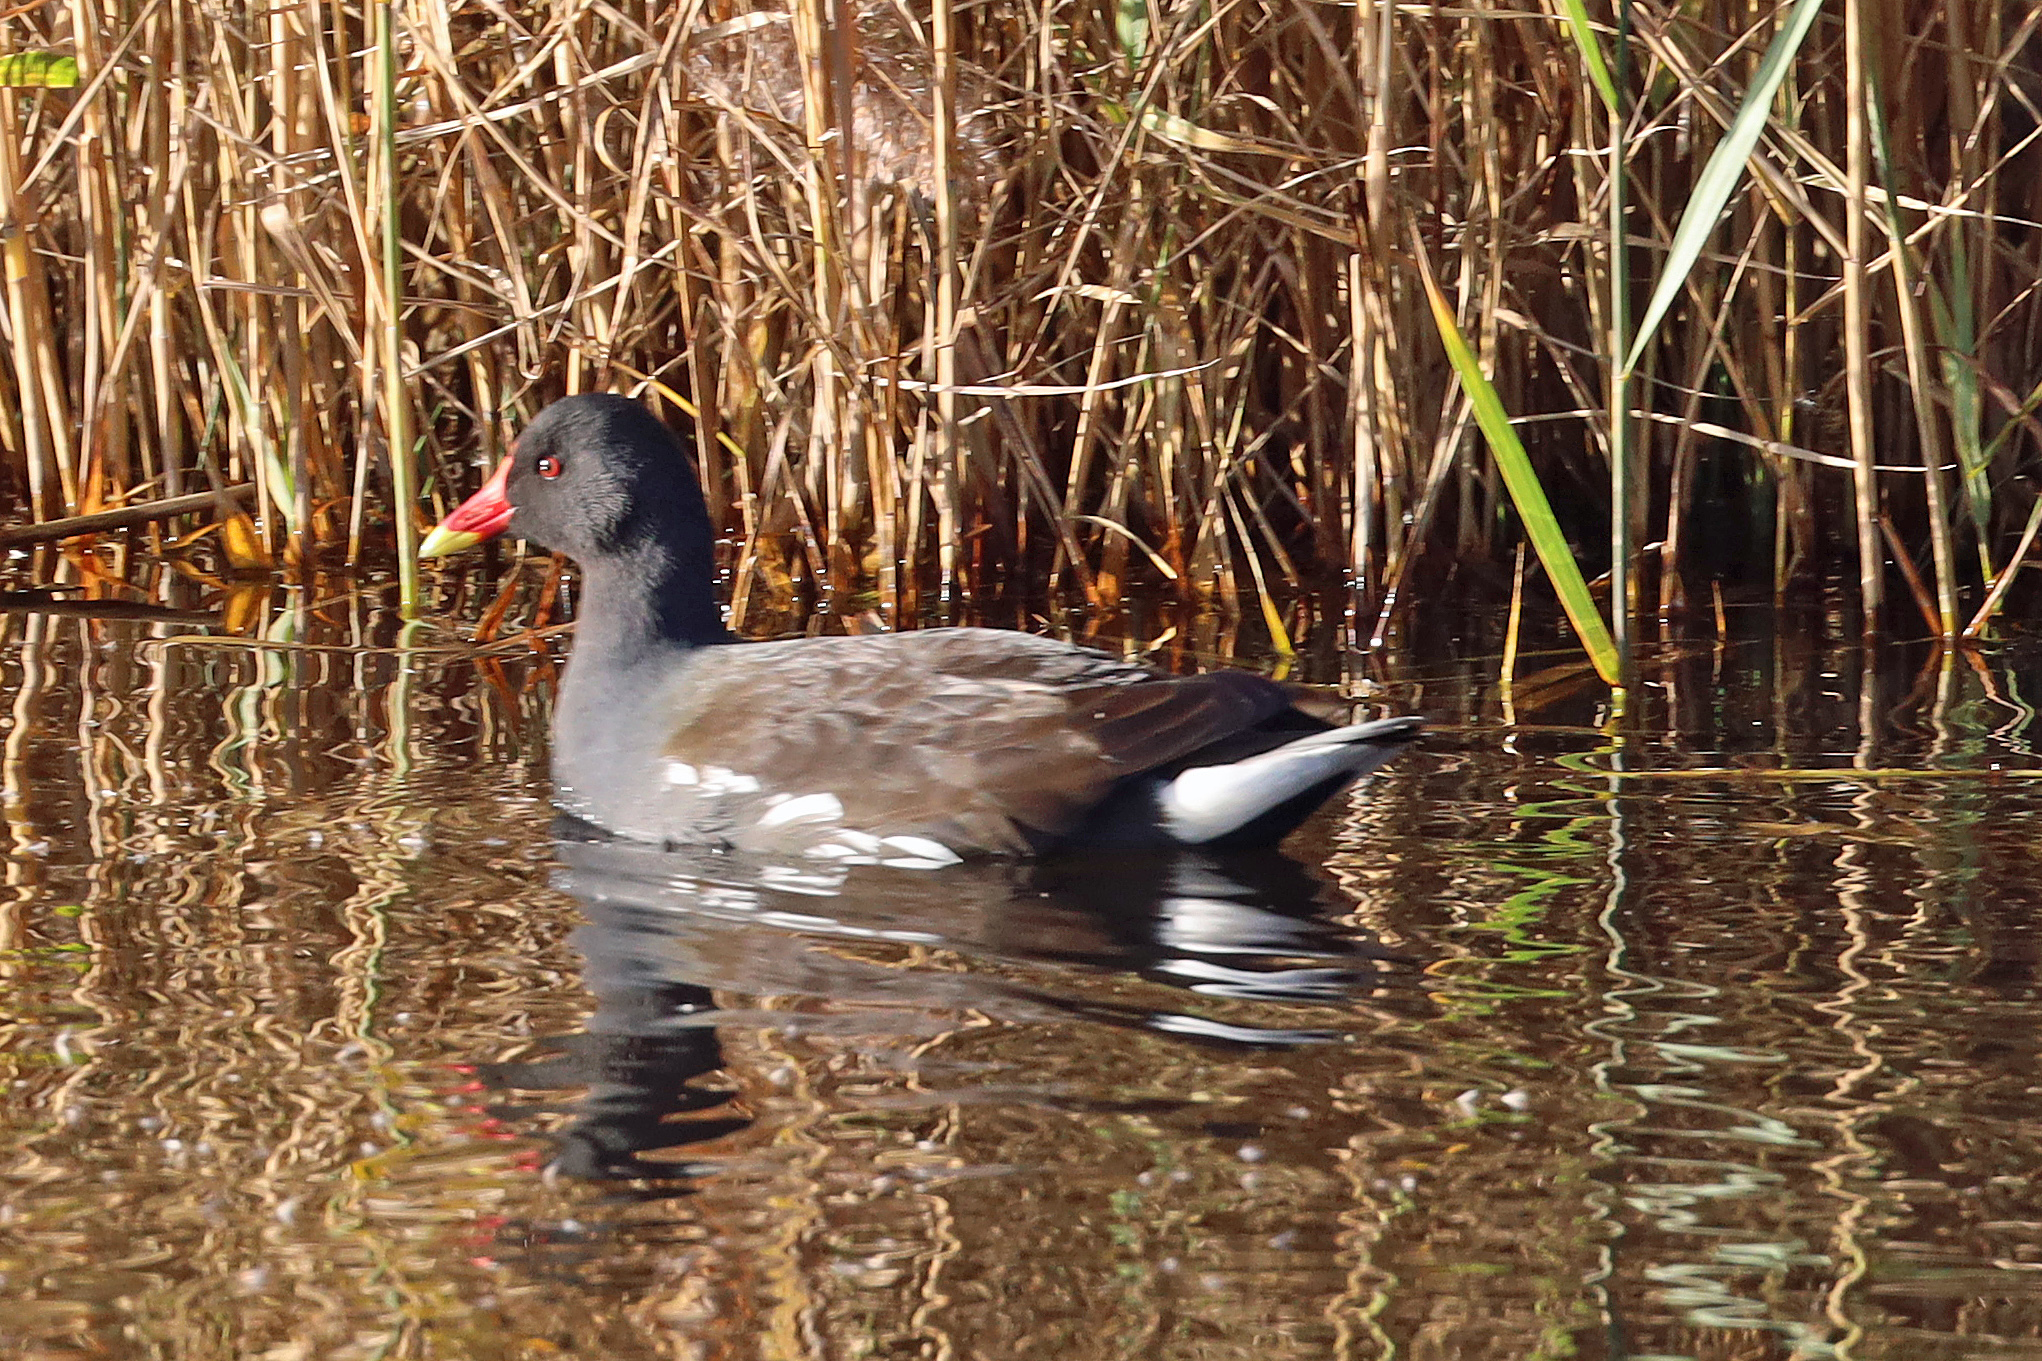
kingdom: Animalia
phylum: Chordata
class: Aves
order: Gruiformes
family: Rallidae
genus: Gallinula
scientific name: Gallinula chloropus
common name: Common moorhen
